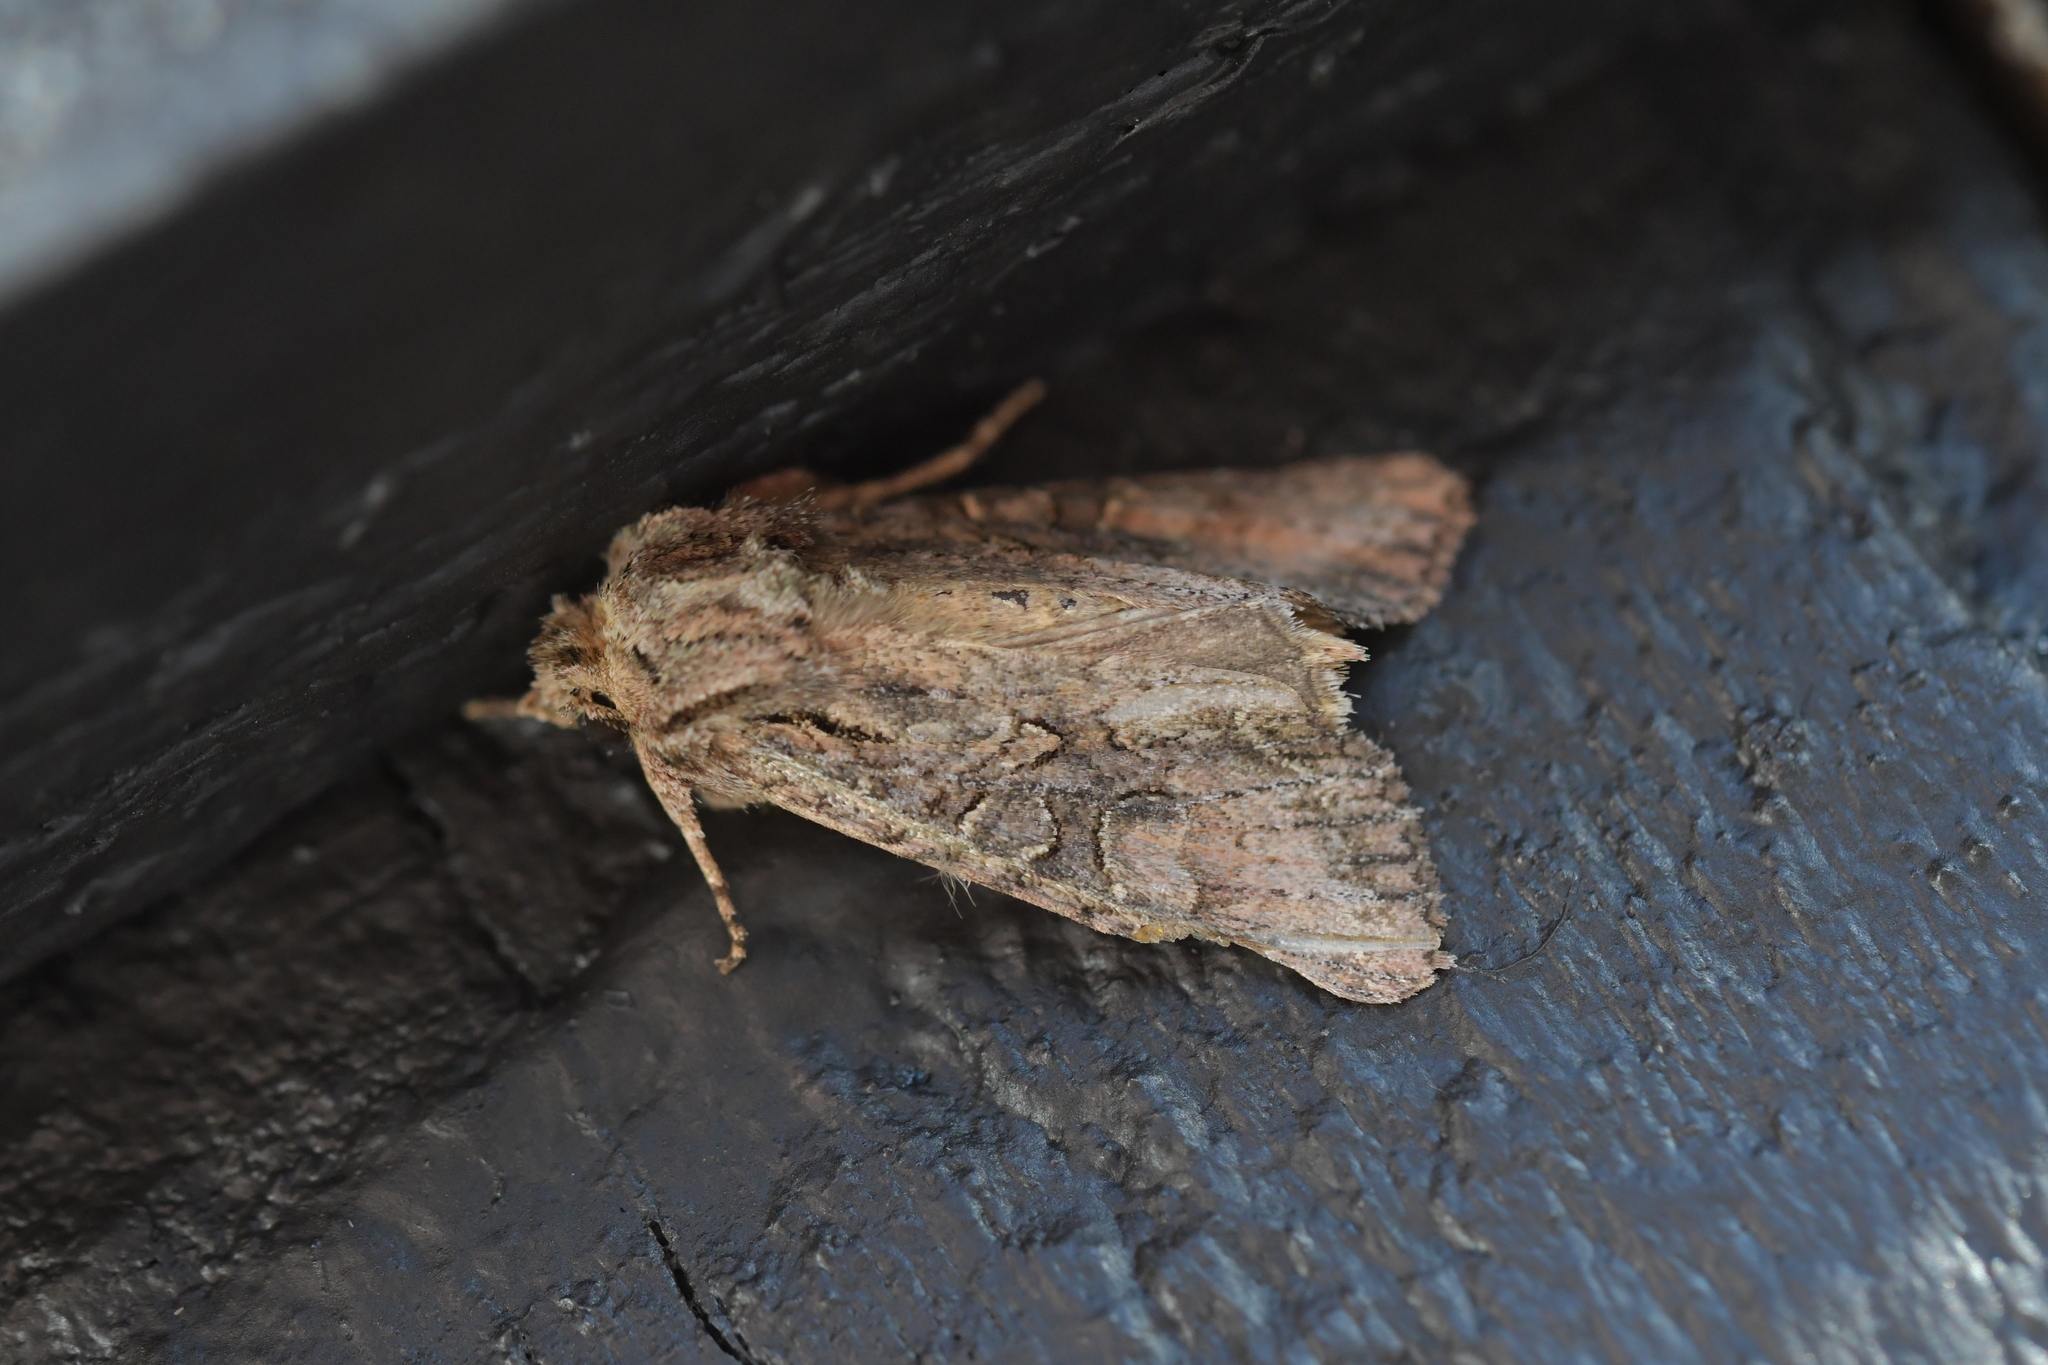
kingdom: Animalia
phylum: Arthropoda
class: Insecta
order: Lepidoptera
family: Noctuidae
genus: Ichneutica
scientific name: Ichneutica mutans
